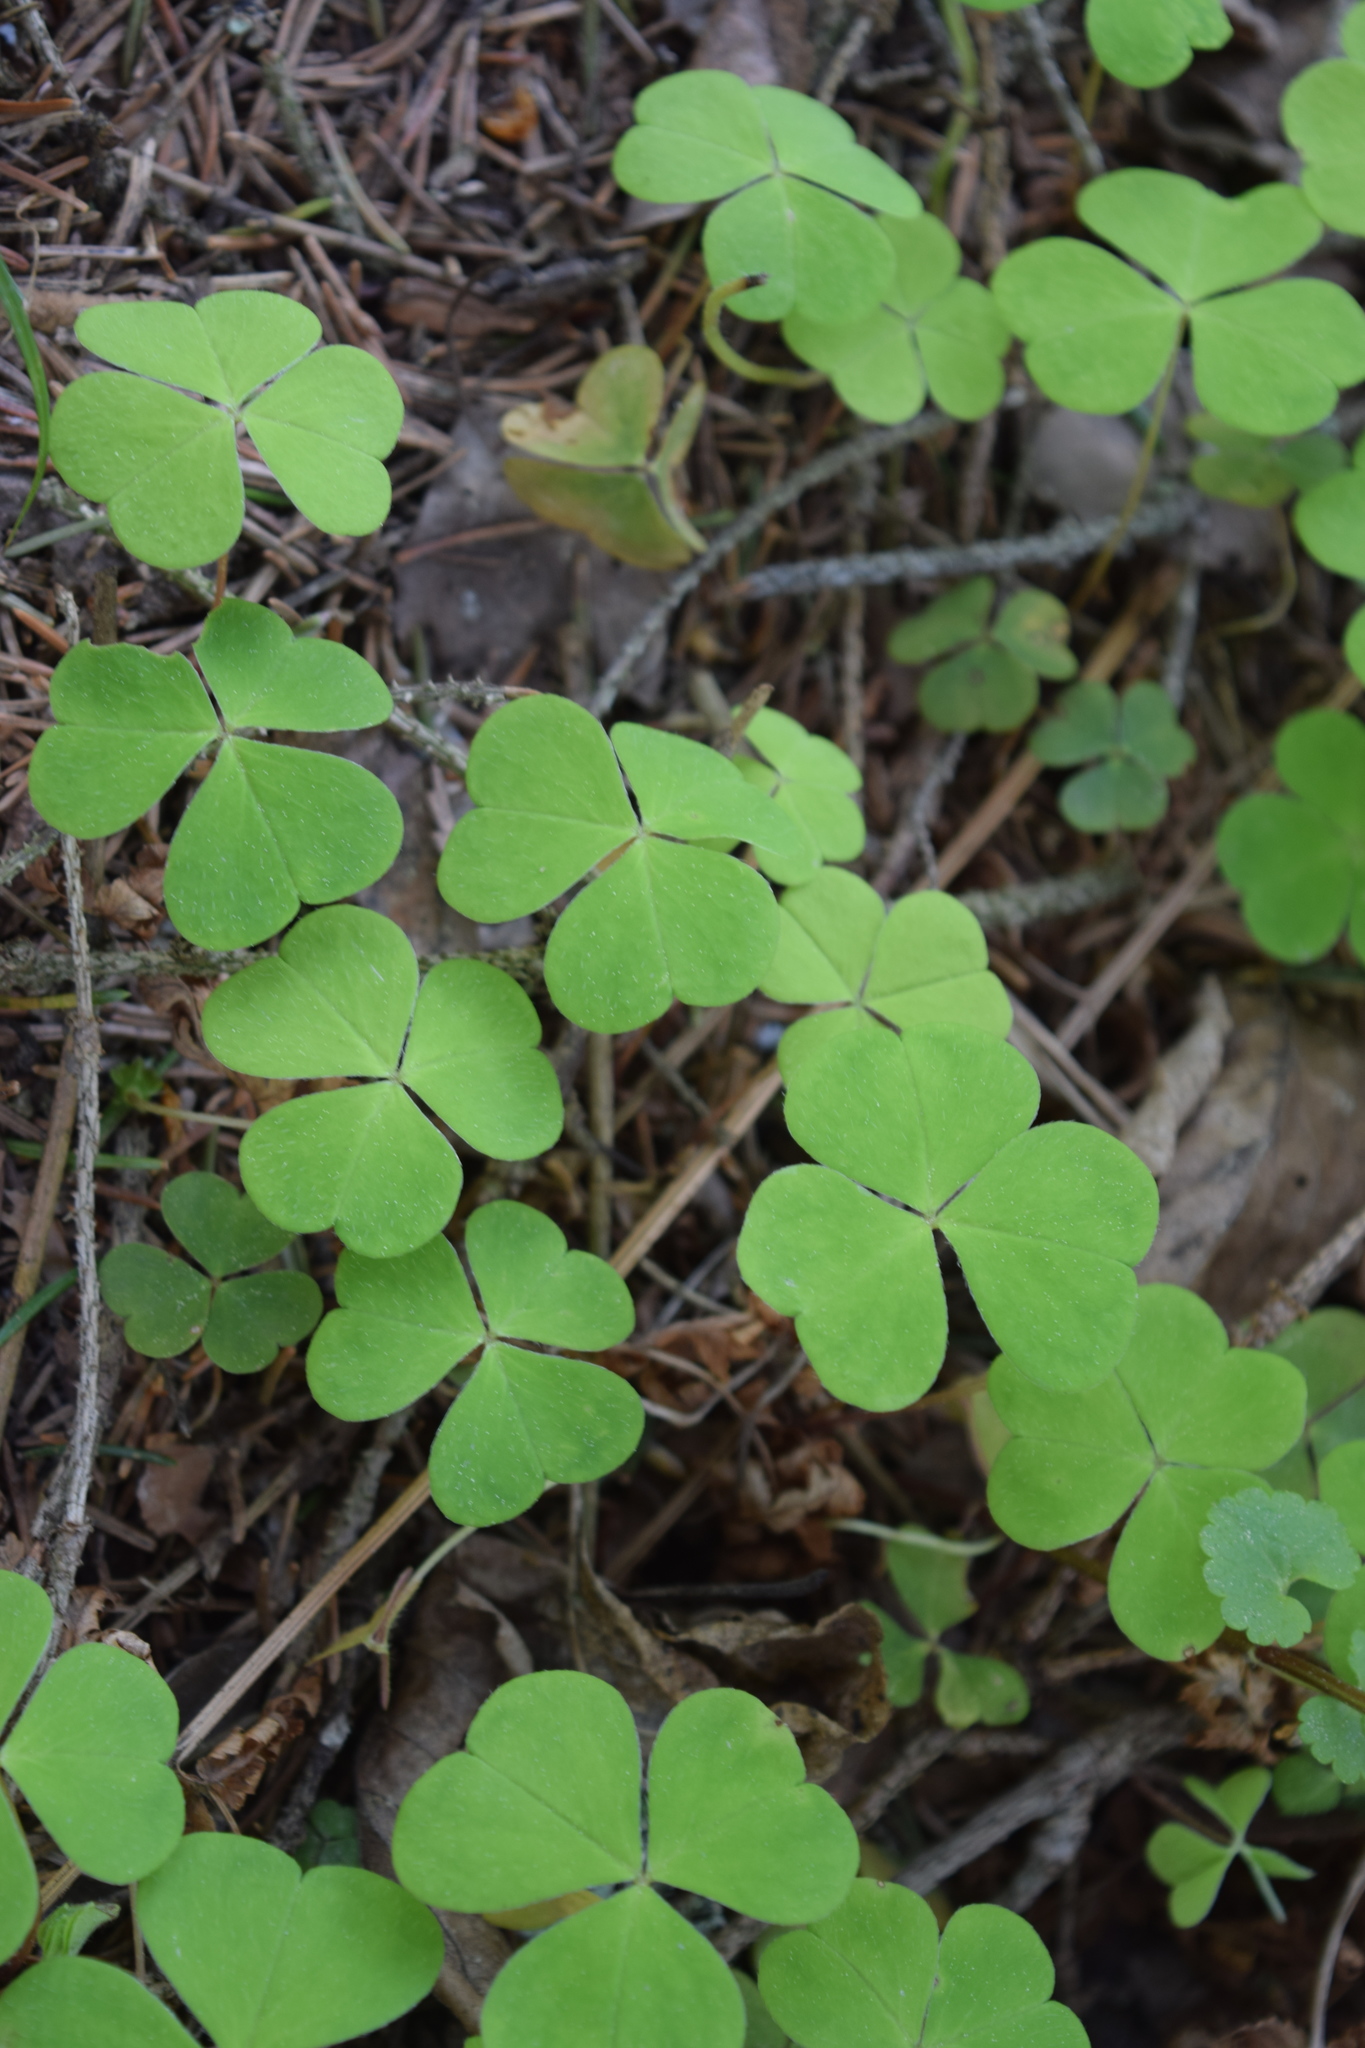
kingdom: Plantae
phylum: Tracheophyta
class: Magnoliopsida
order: Oxalidales
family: Oxalidaceae
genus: Oxalis
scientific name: Oxalis acetosella
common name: Wood-sorrel
